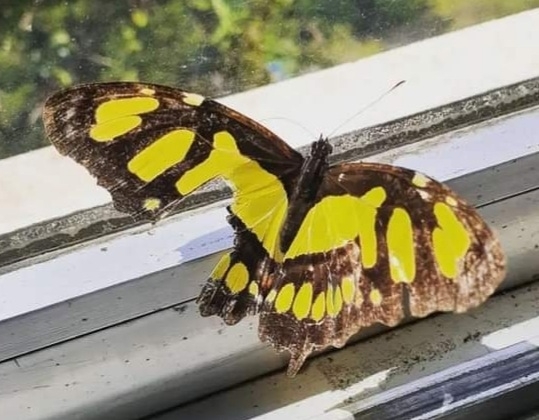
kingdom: Animalia
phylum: Arthropoda
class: Insecta
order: Lepidoptera
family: Nymphalidae
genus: Siproeta
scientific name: Siproeta stelenes
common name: Malachite
